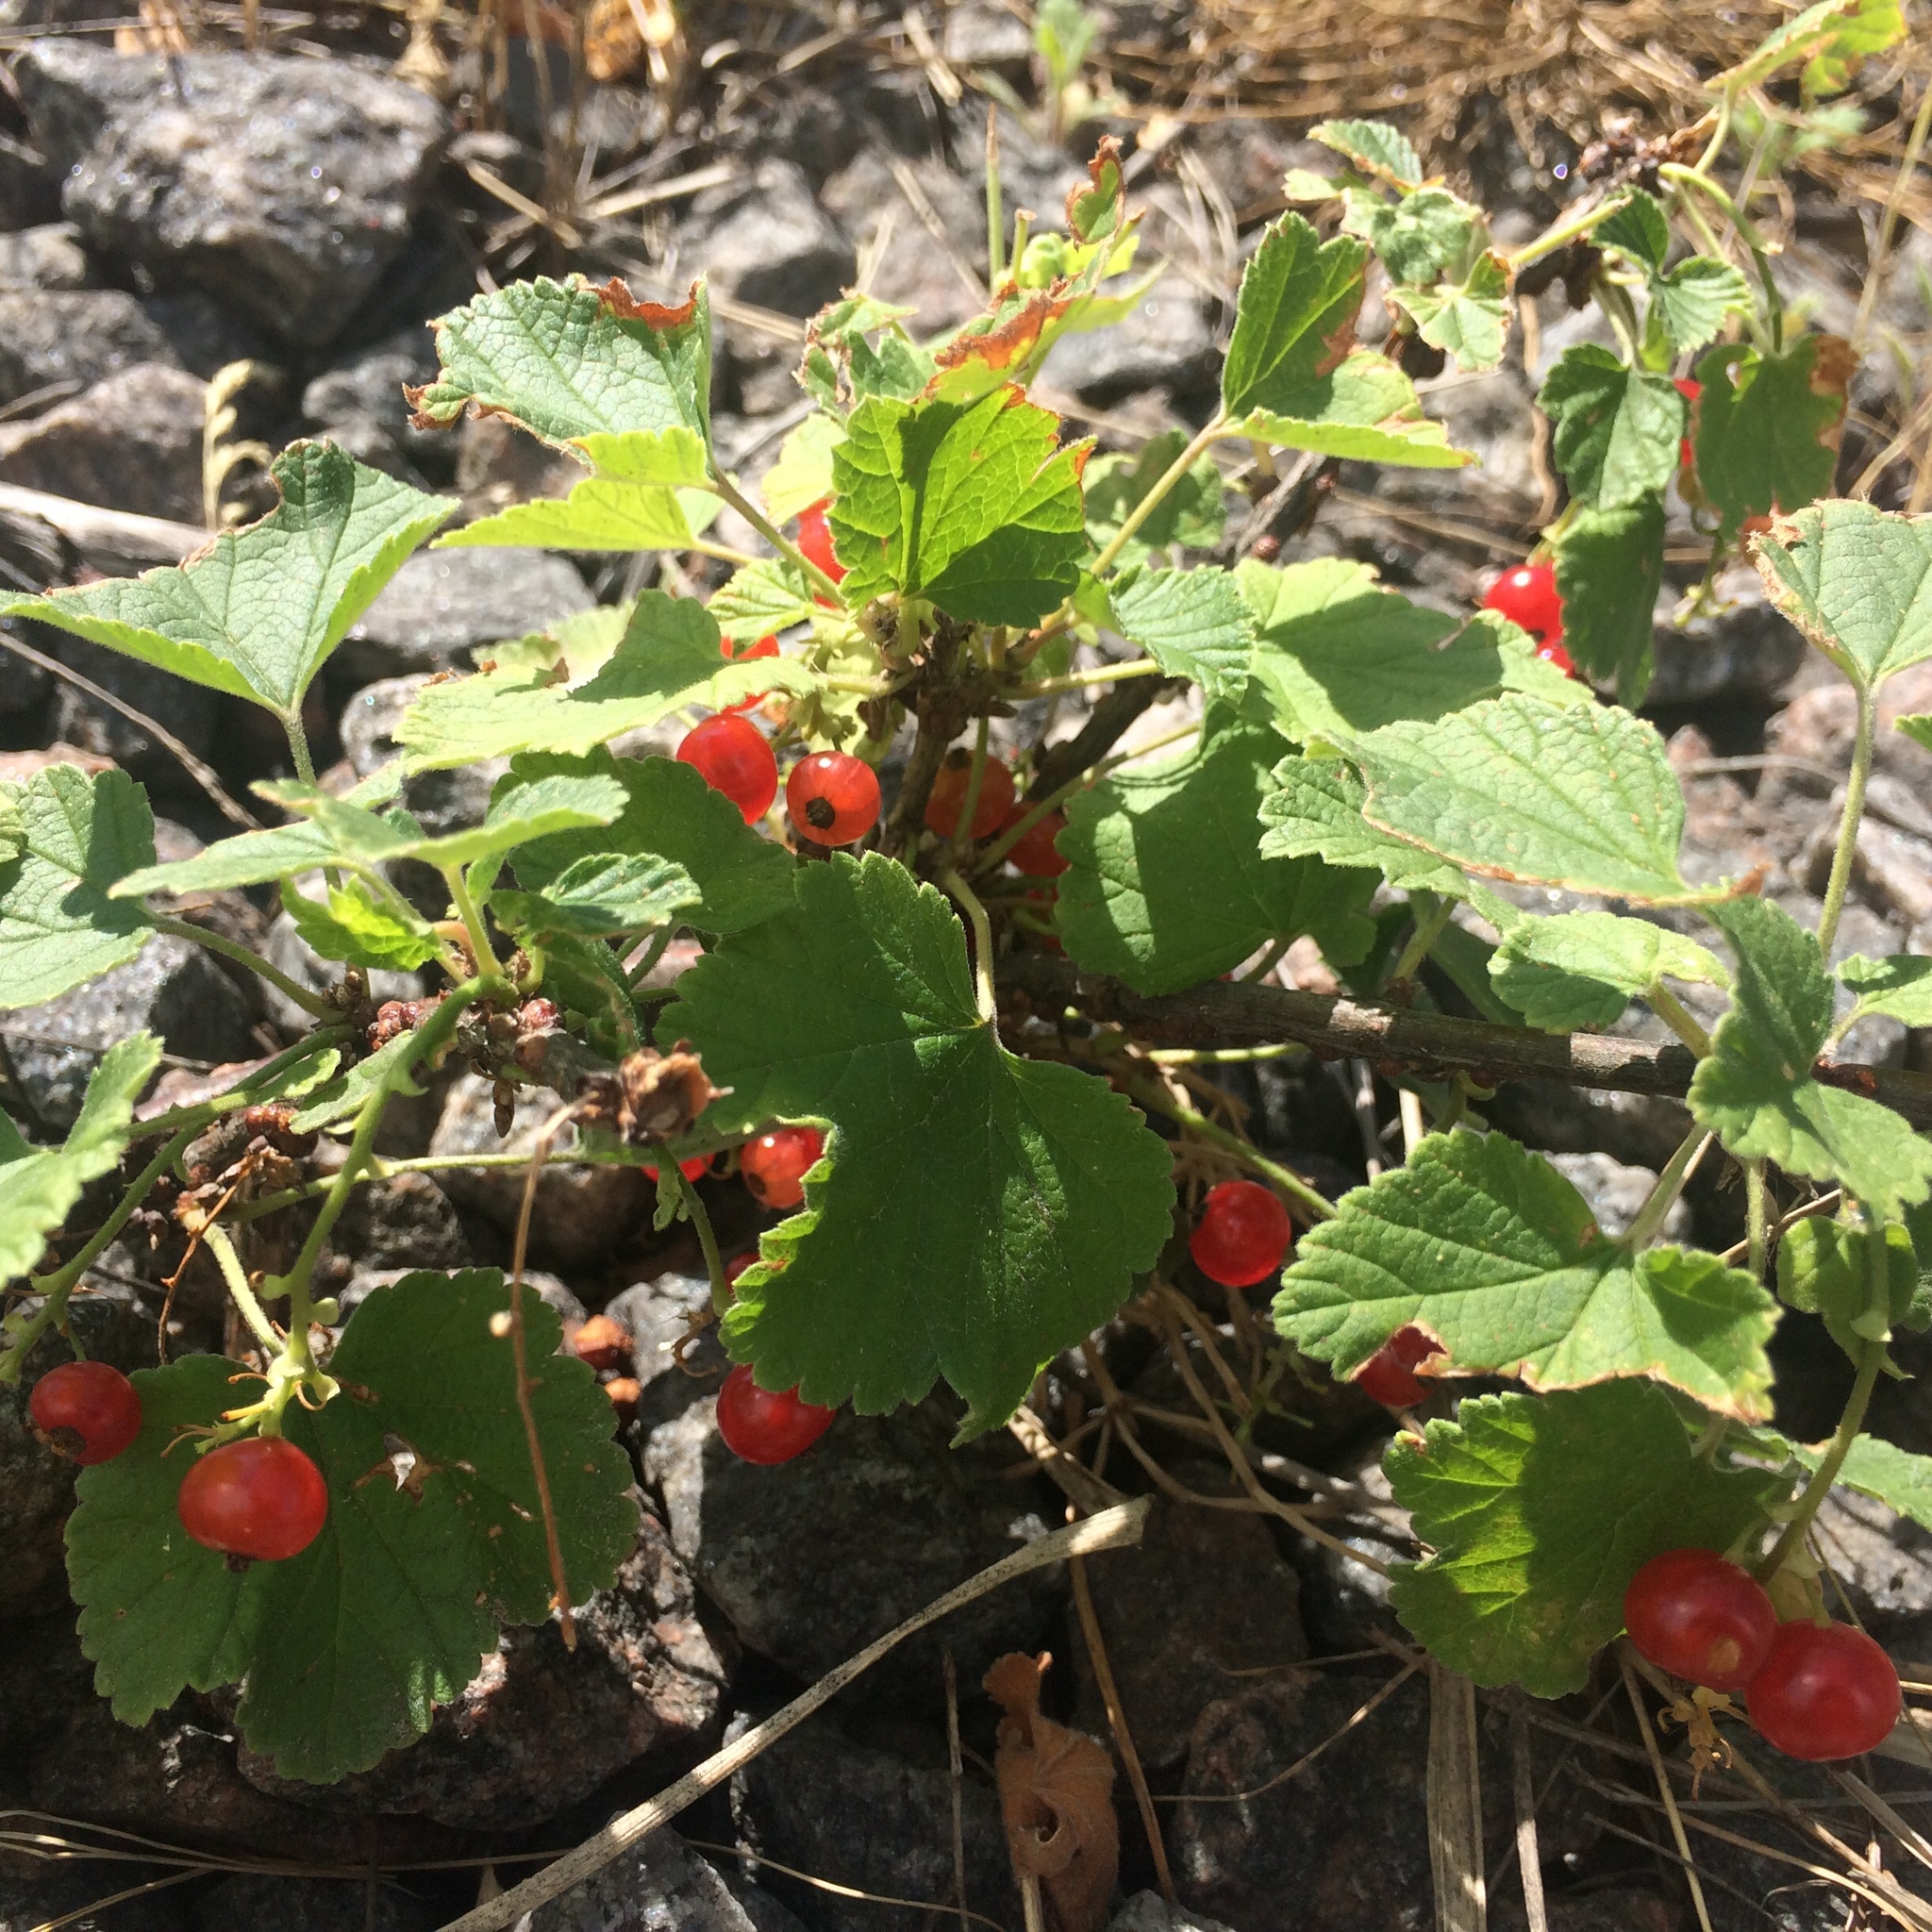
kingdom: Plantae
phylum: Tracheophyta
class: Magnoliopsida
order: Saxifragales
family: Grossulariaceae
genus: Ribes
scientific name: Ribes rubrum
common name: Red currant
